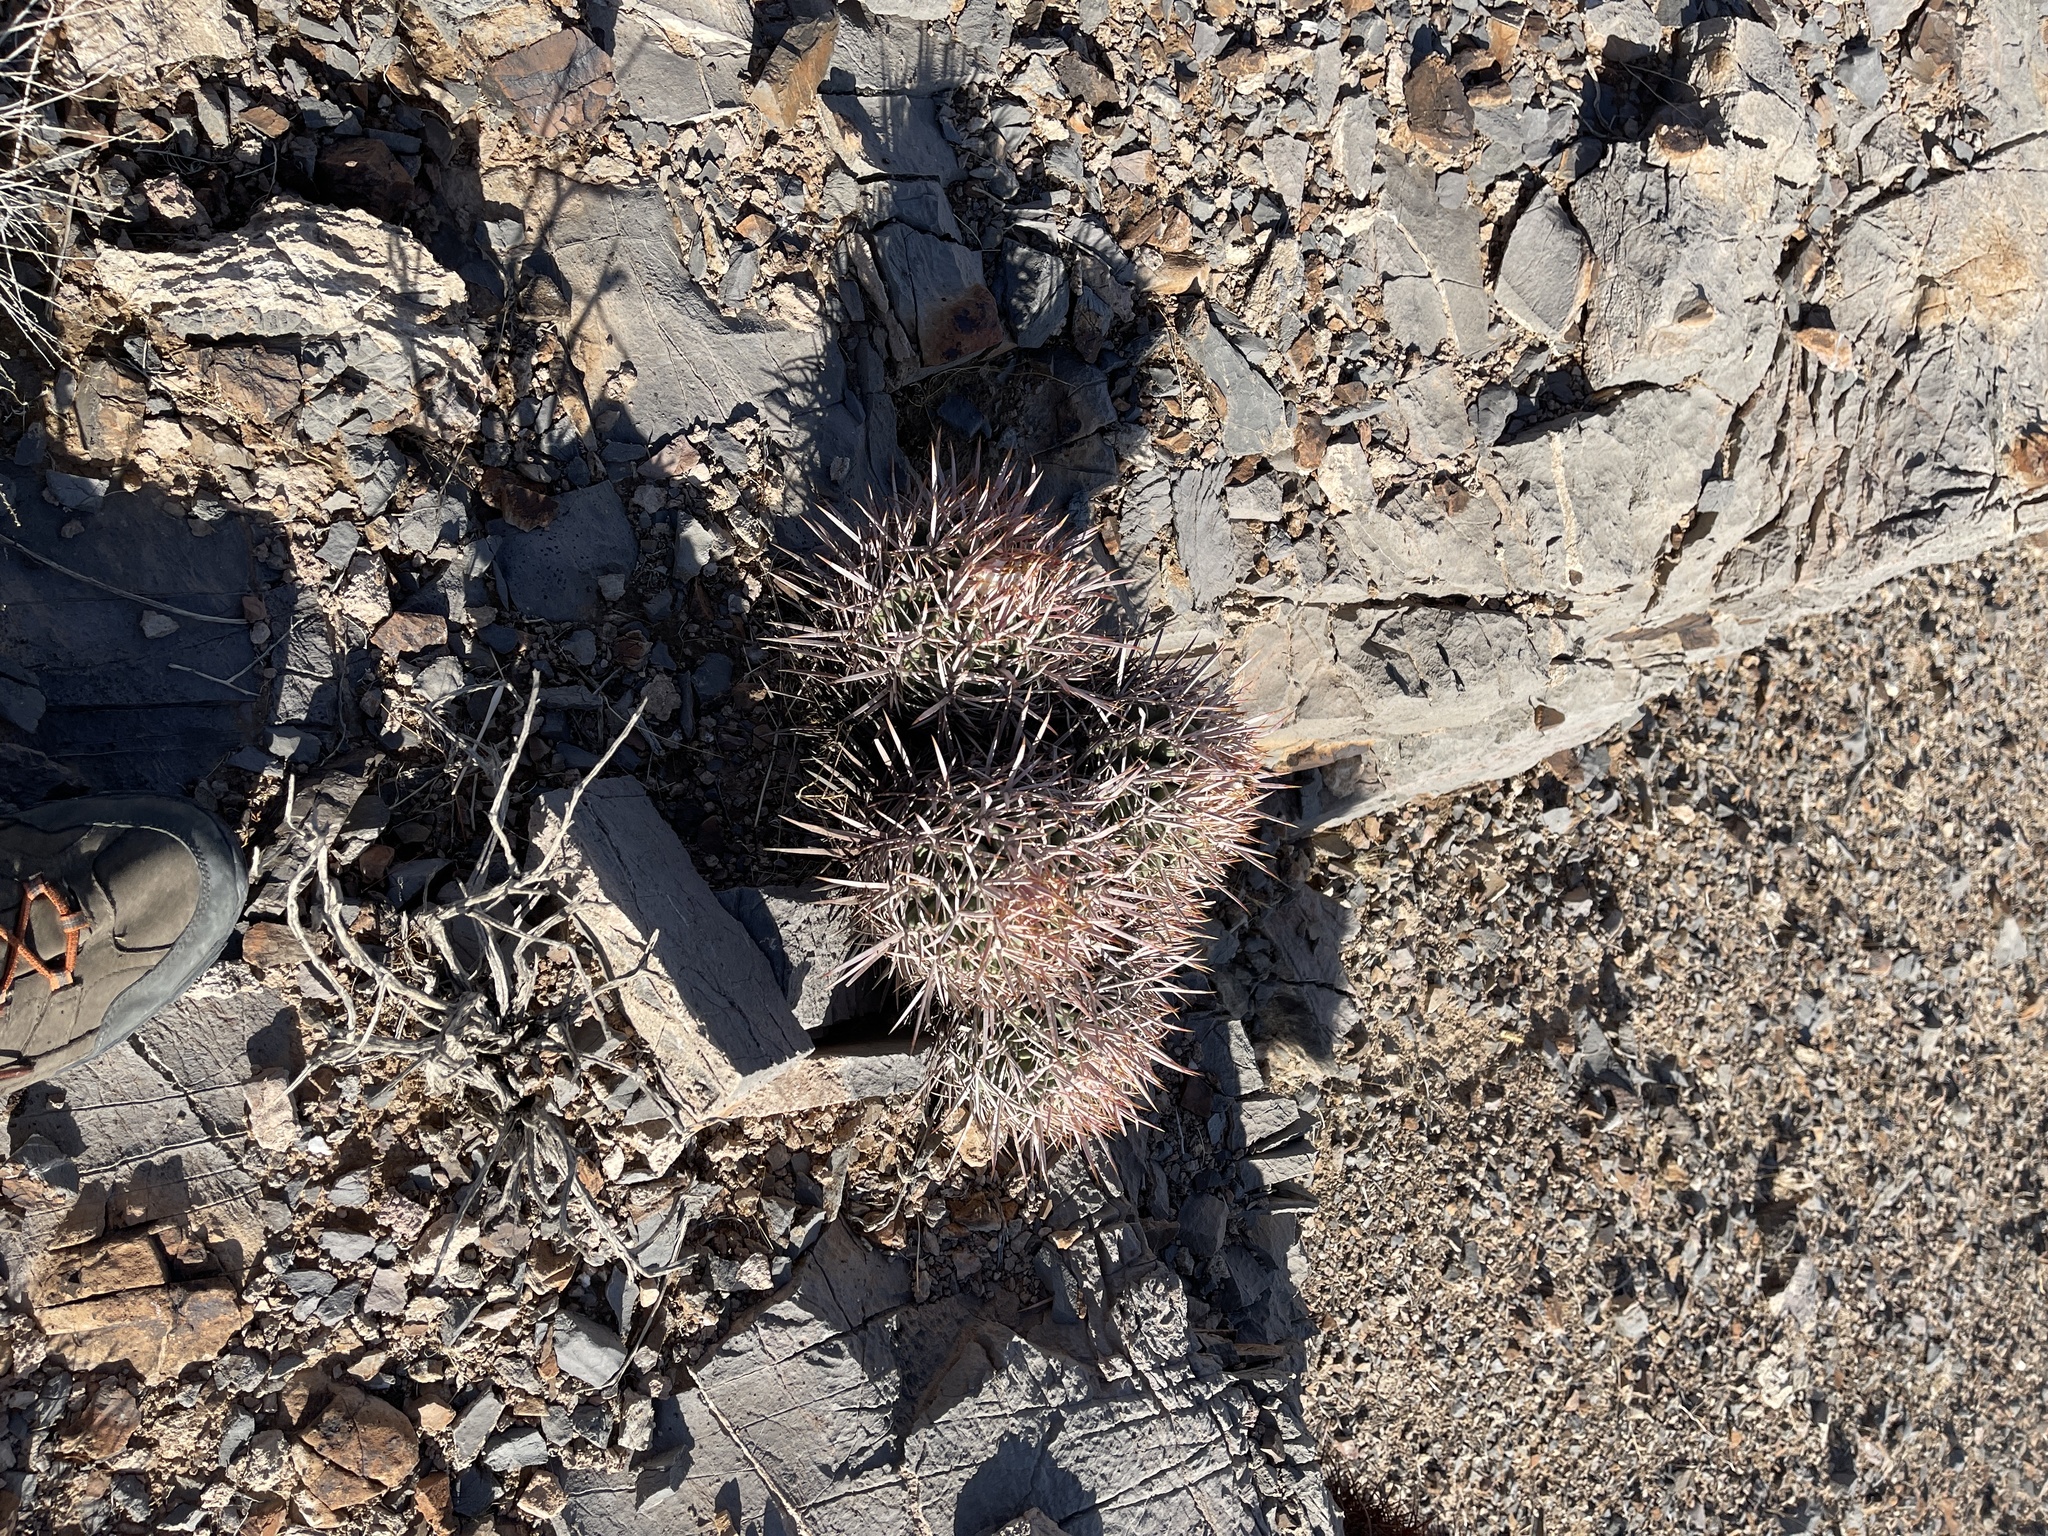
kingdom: Plantae
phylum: Tracheophyta
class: Magnoliopsida
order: Caryophyllales
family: Cactaceae
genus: Echinocactus
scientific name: Echinocactus polycephalus
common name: Cottontop cactus
